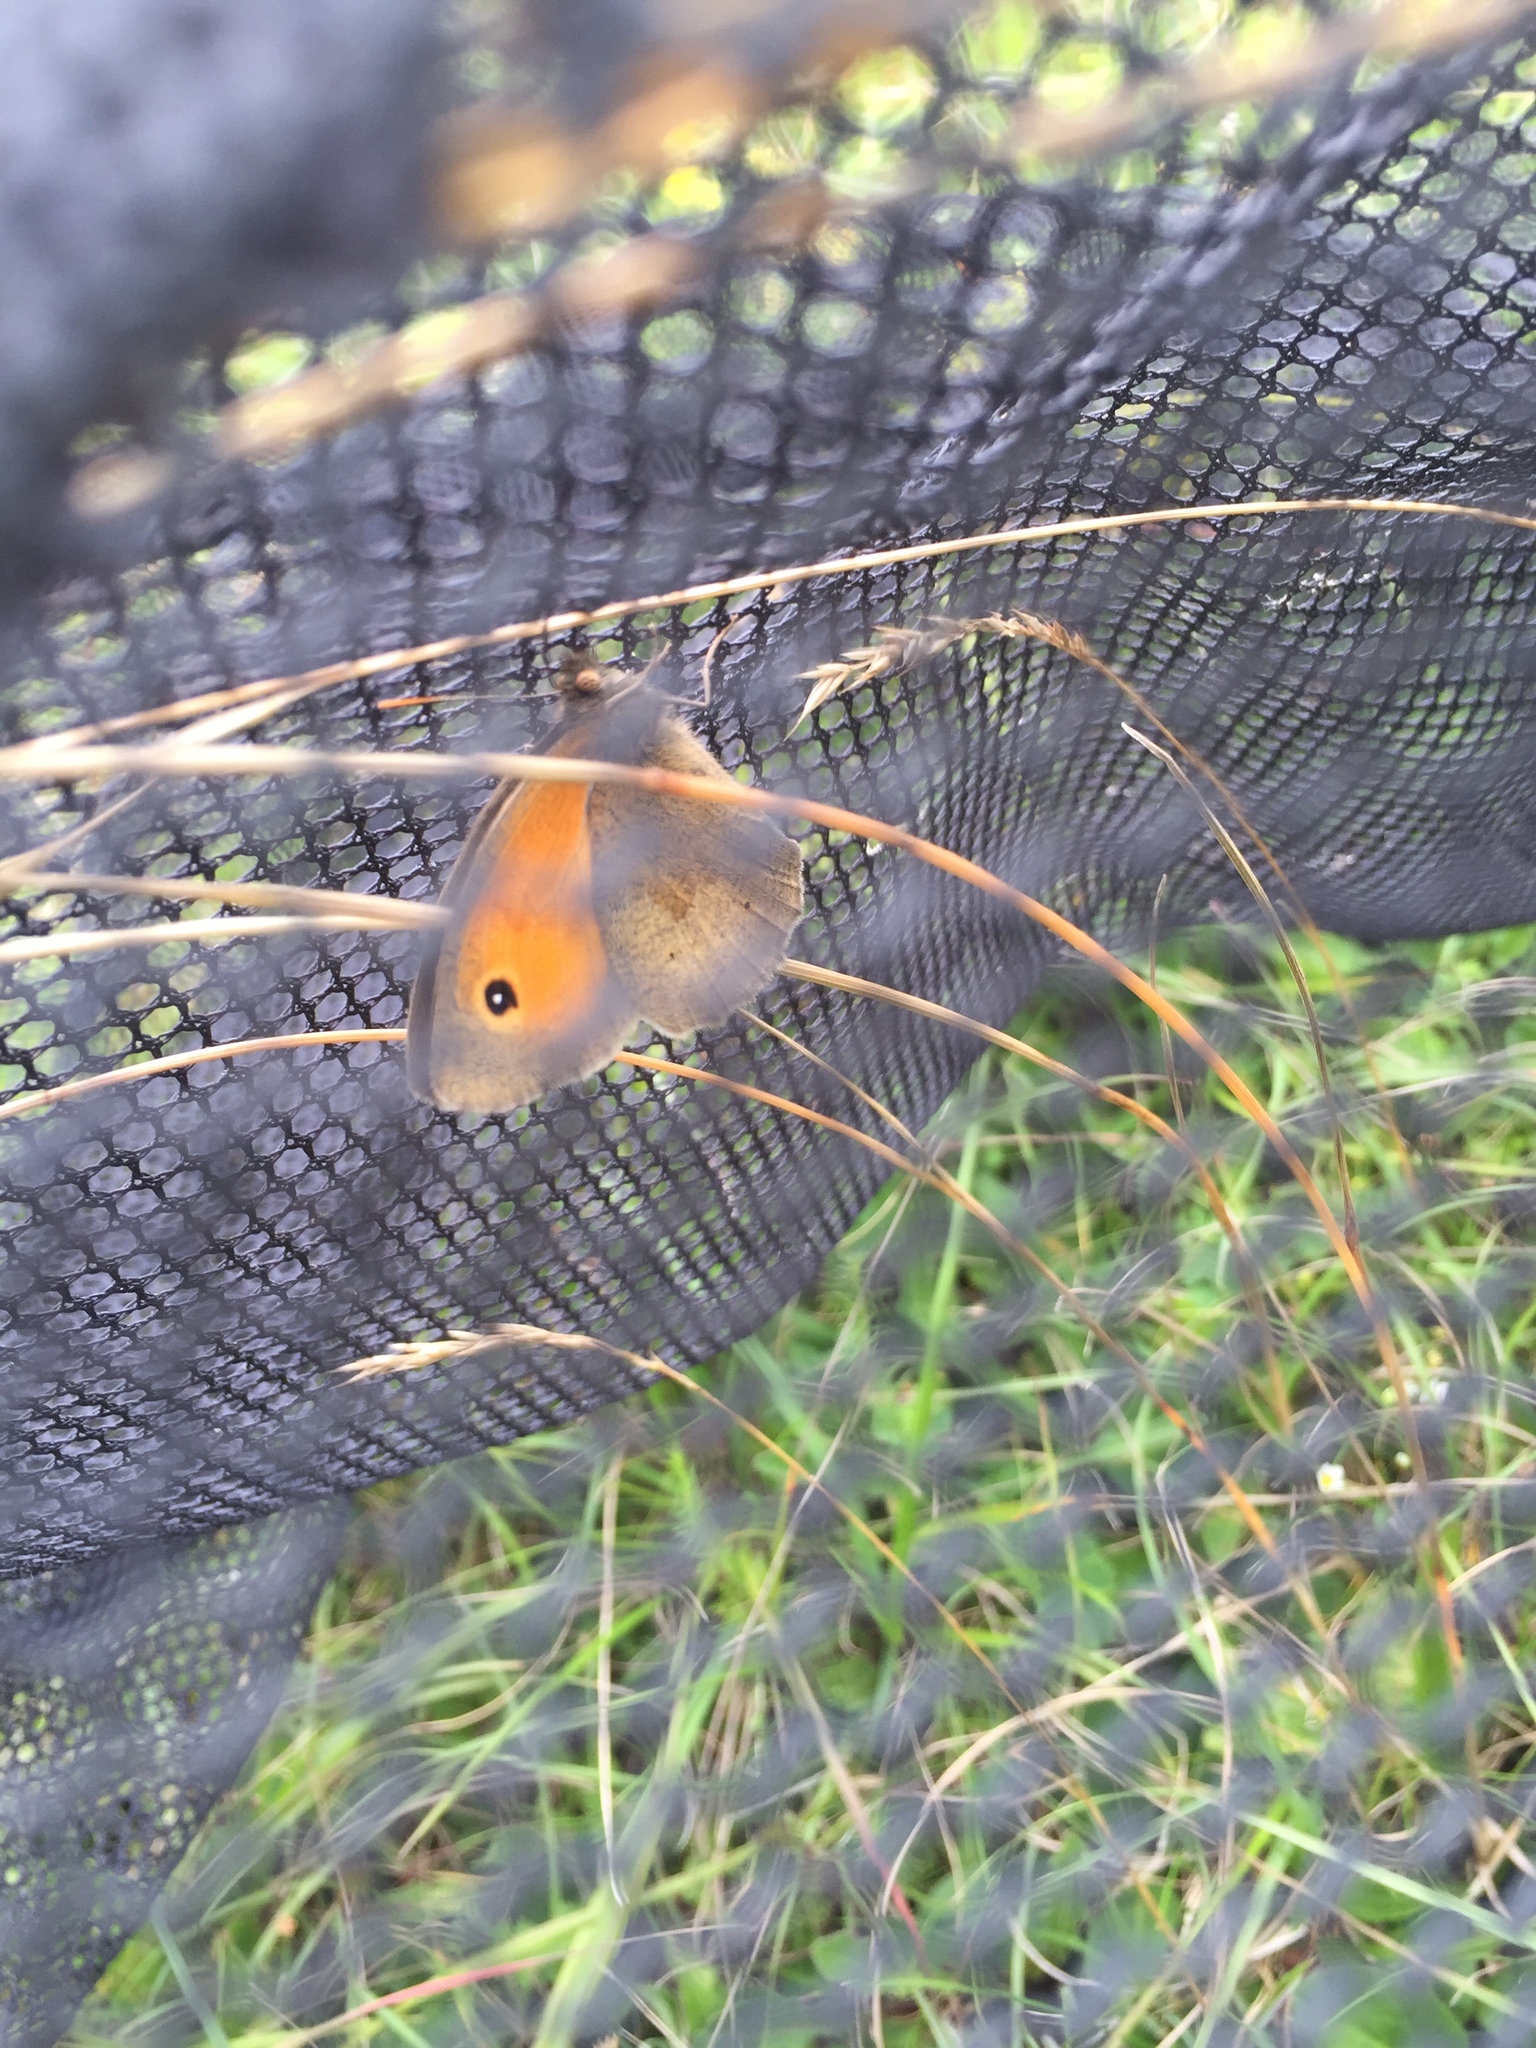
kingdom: Animalia
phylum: Arthropoda
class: Insecta
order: Lepidoptera
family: Nymphalidae
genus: Maniola
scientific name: Maniola jurtina
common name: Meadow brown
